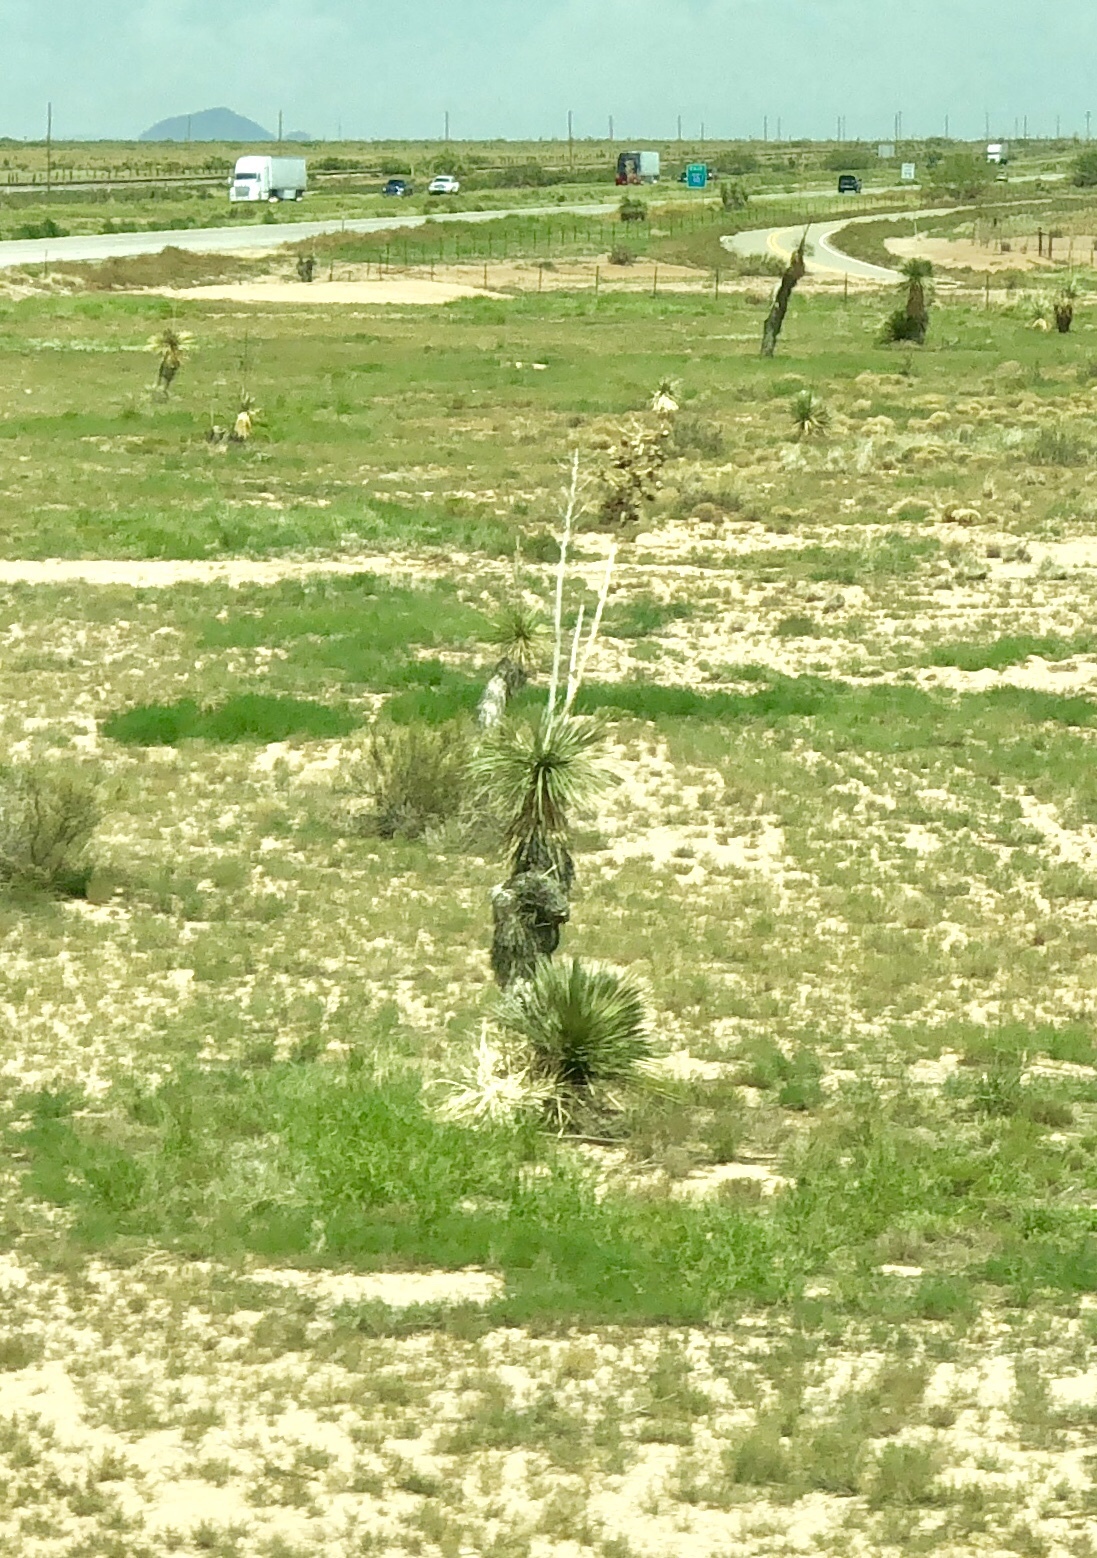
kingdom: Plantae
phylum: Tracheophyta
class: Liliopsida
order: Asparagales
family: Asparagaceae
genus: Yucca
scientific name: Yucca elata
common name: Palmella
